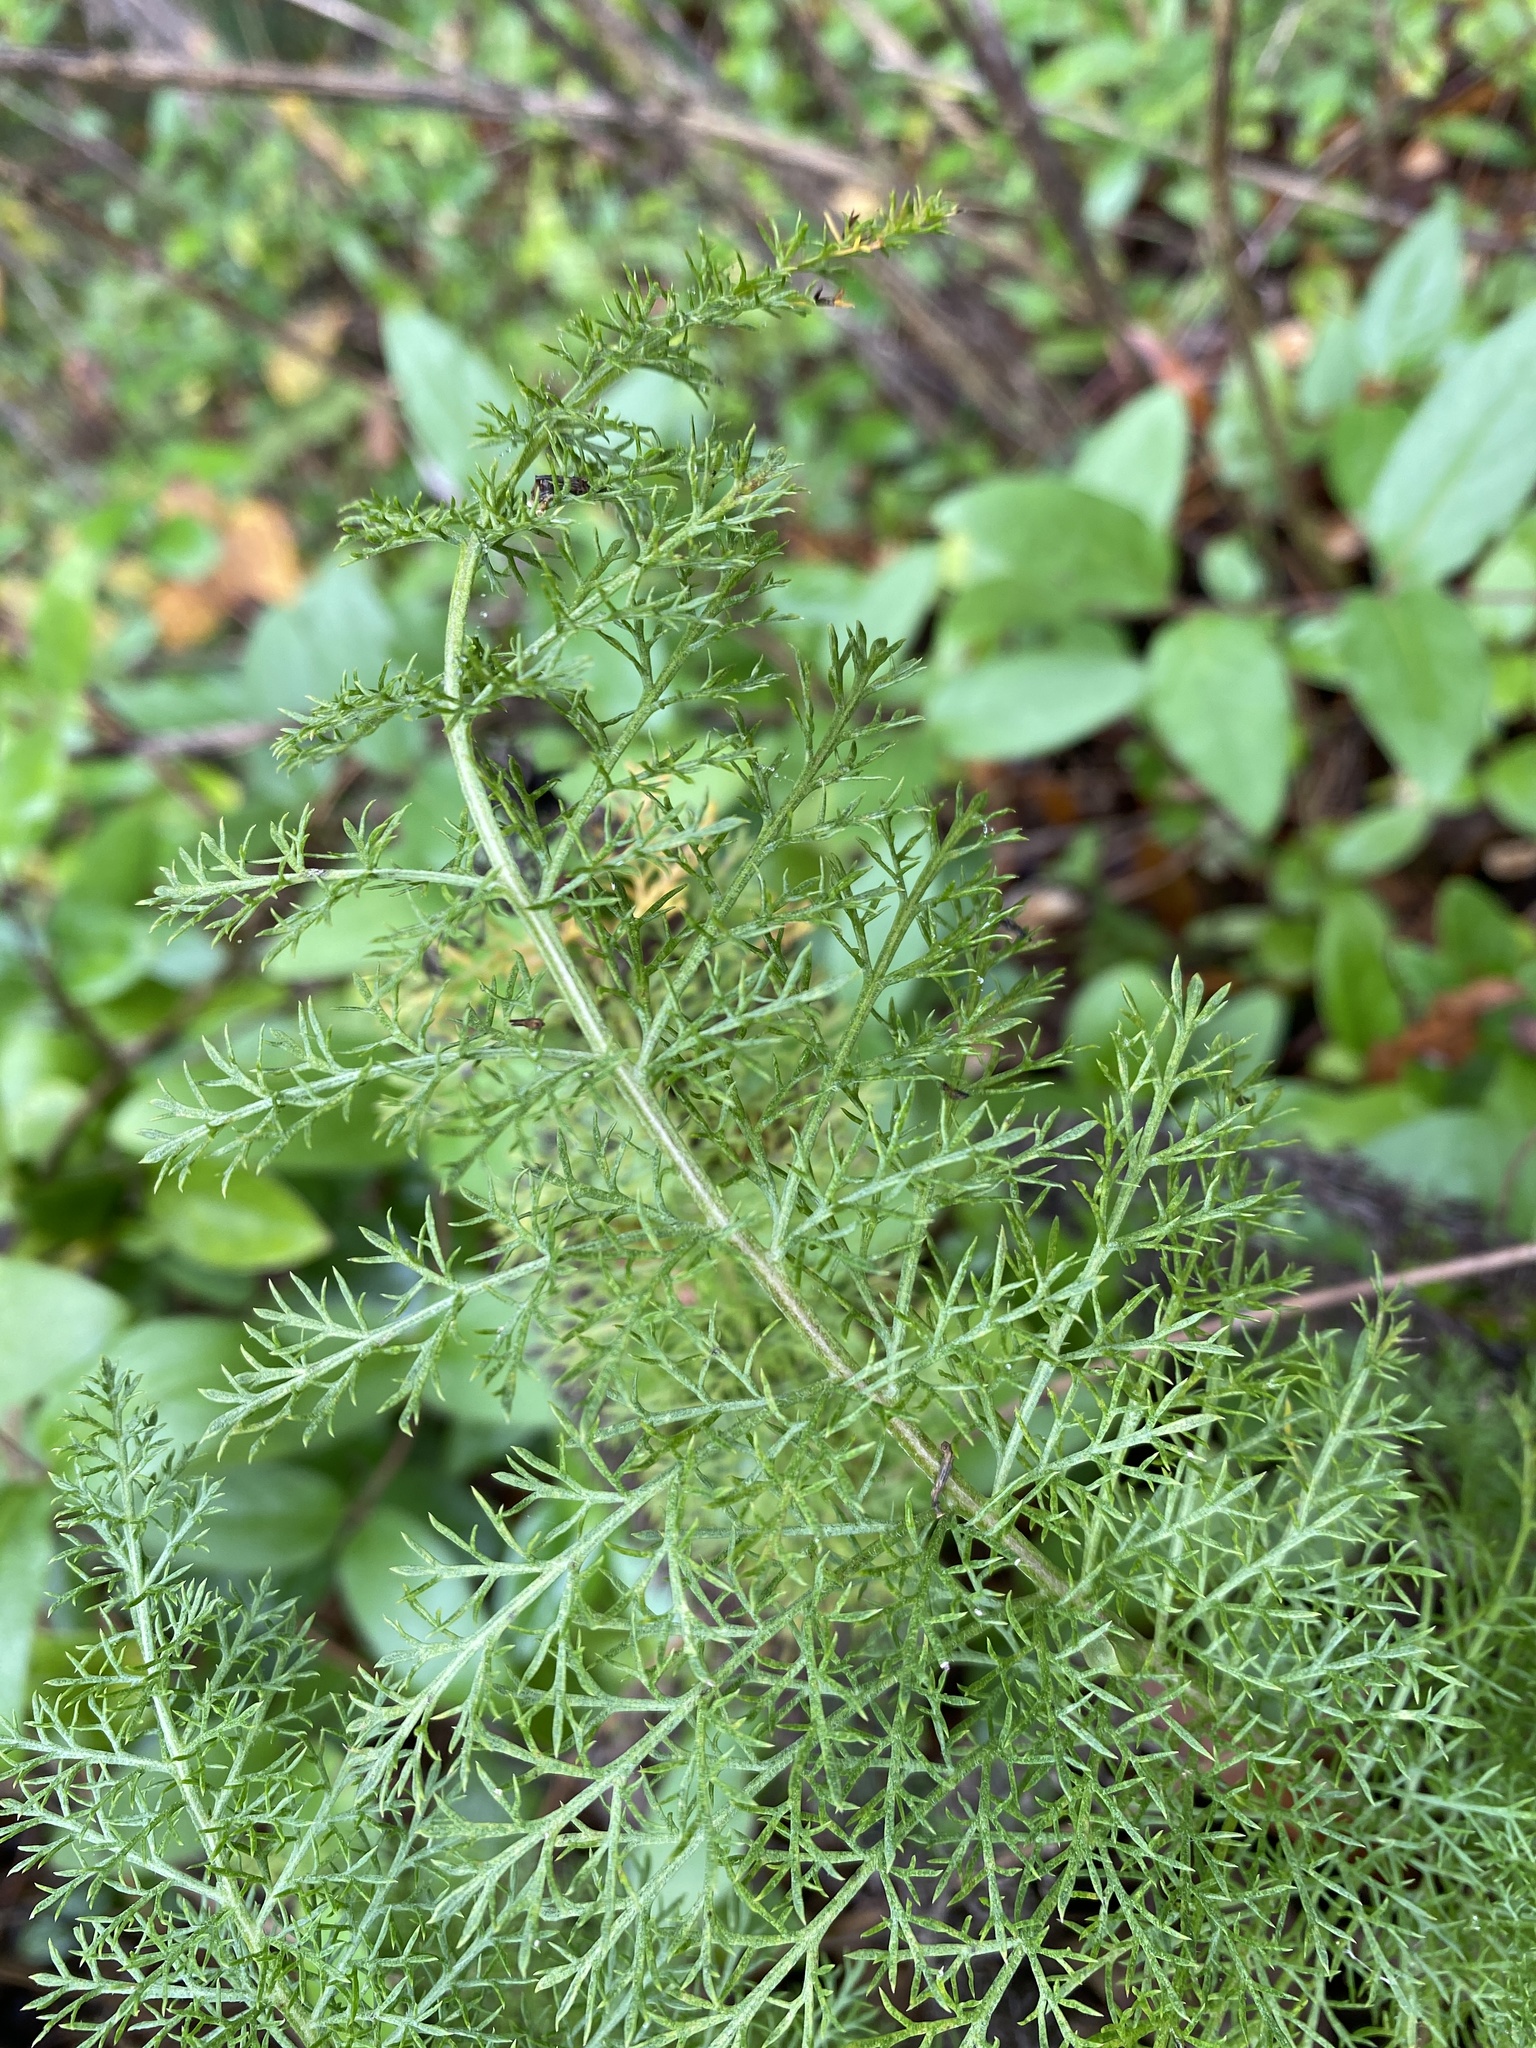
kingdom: Plantae
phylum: Tracheophyta
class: Magnoliopsida
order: Asterales
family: Asteraceae
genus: Achillea
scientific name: Achillea millefolium
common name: Yarrow
